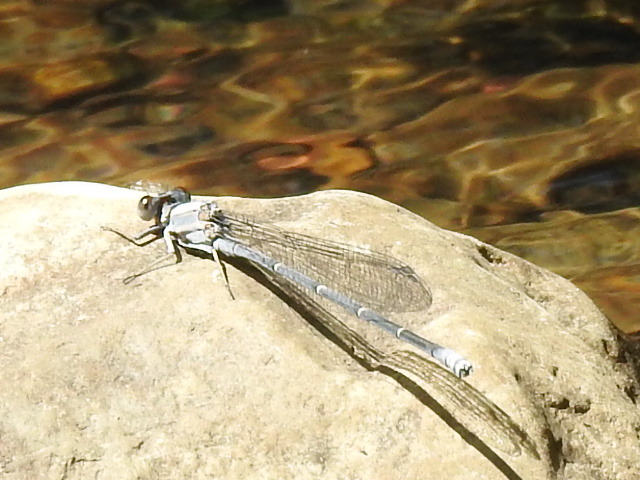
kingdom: Animalia
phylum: Arthropoda
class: Insecta
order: Odonata
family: Coenagrionidae
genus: Argia
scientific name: Argia moesta
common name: Powdered dancer
